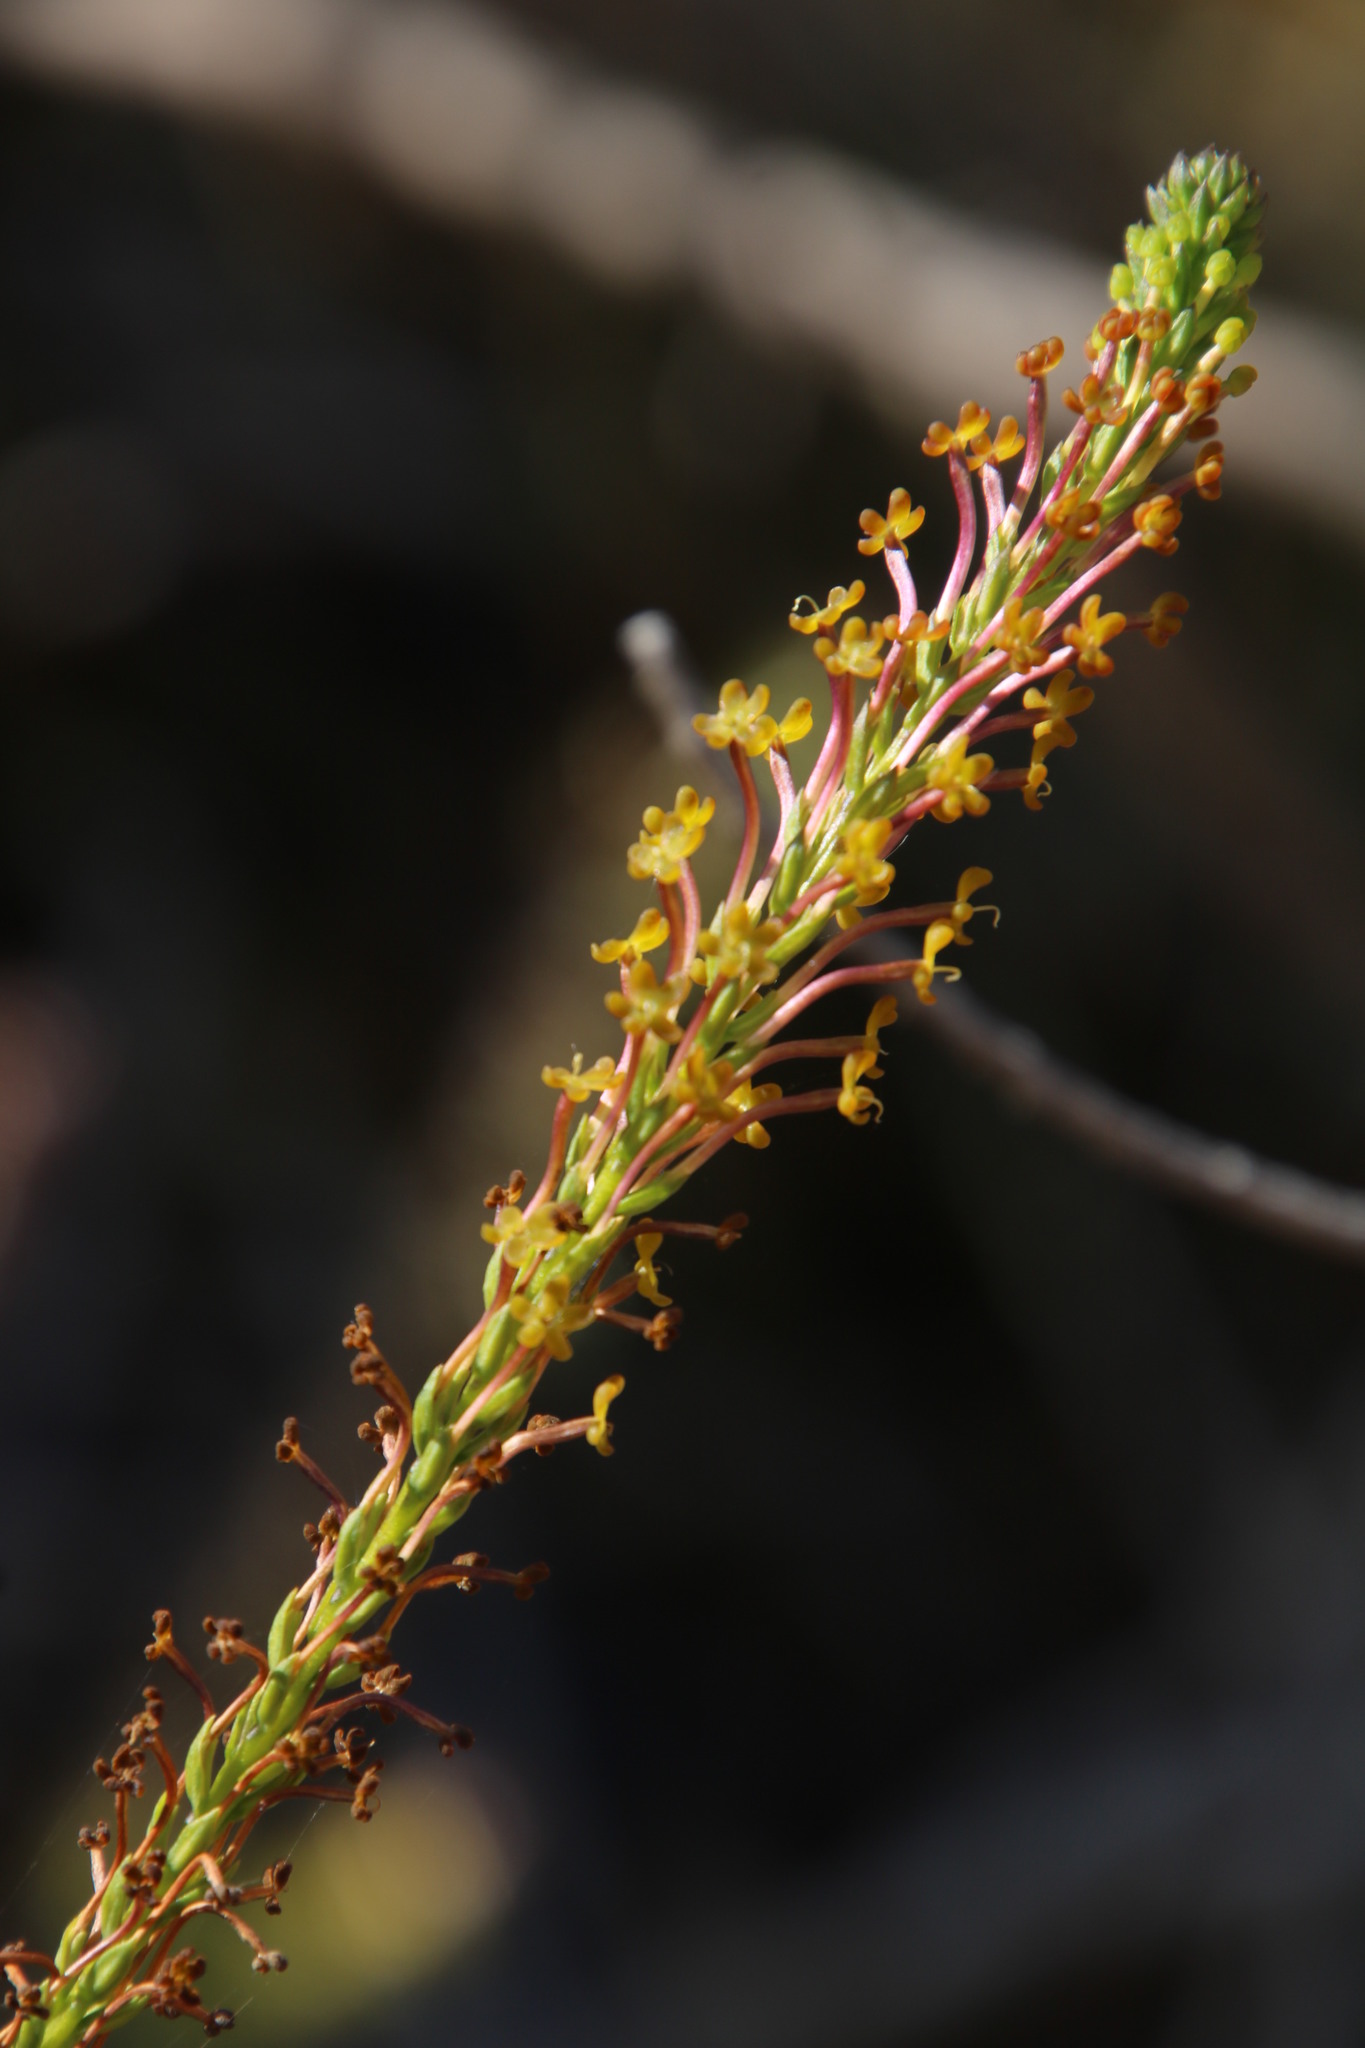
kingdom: Plantae
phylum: Tracheophyta
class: Magnoliopsida
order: Lamiales
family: Scrophulariaceae
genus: Microdon
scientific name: Microdon dubius
